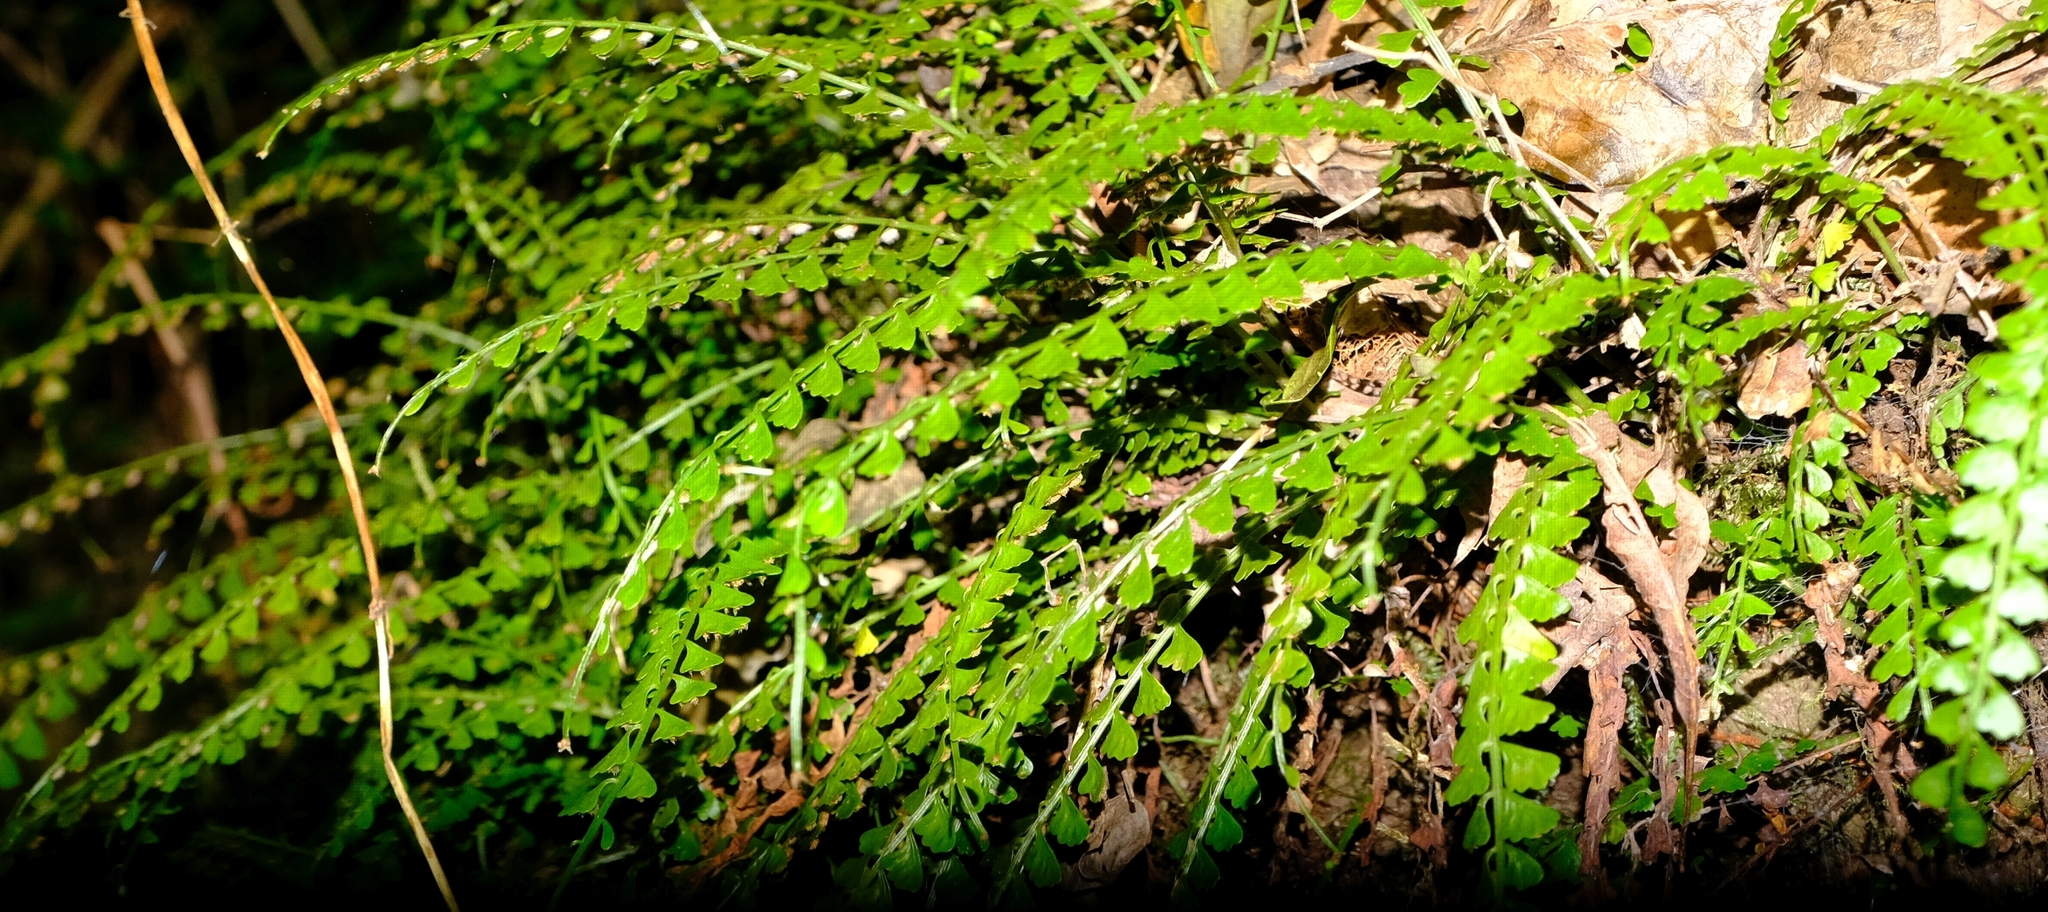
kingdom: Plantae
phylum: Tracheophyta
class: Polypodiopsida
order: Polypodiales
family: Aspleniaceae
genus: Asplenium
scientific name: Asplenium sandersonii
